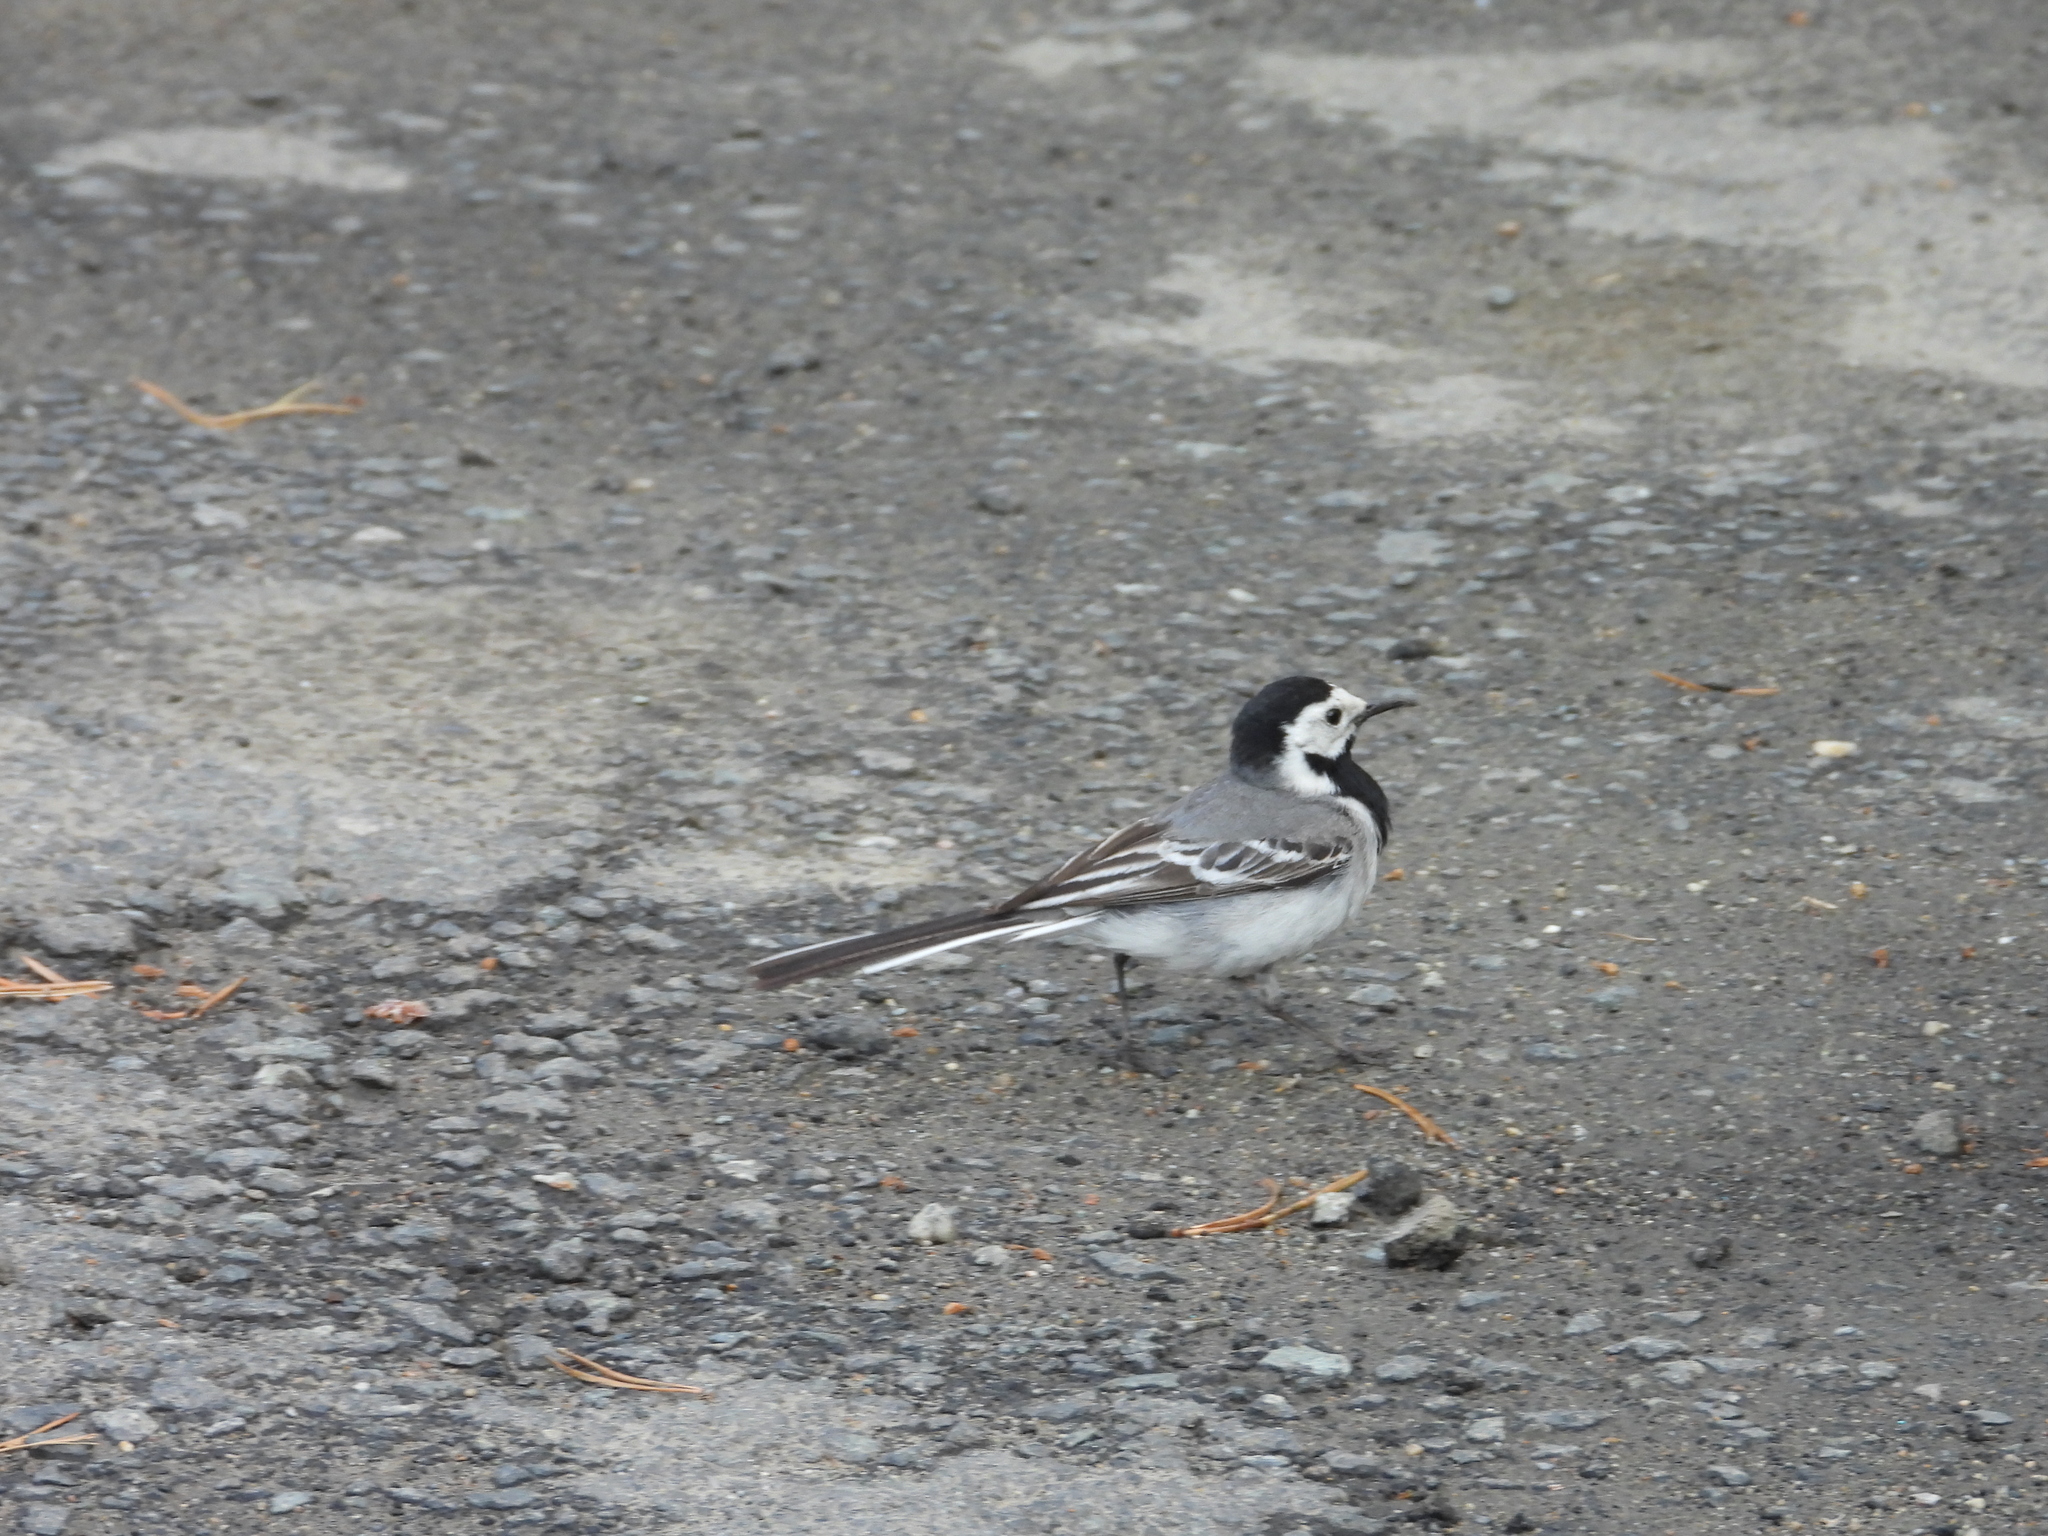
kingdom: Animalia
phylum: Chordata
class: Aves
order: Passeriformes
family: Motacillidae
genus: Motacilla
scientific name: Motacilla alba
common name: White wagtail
